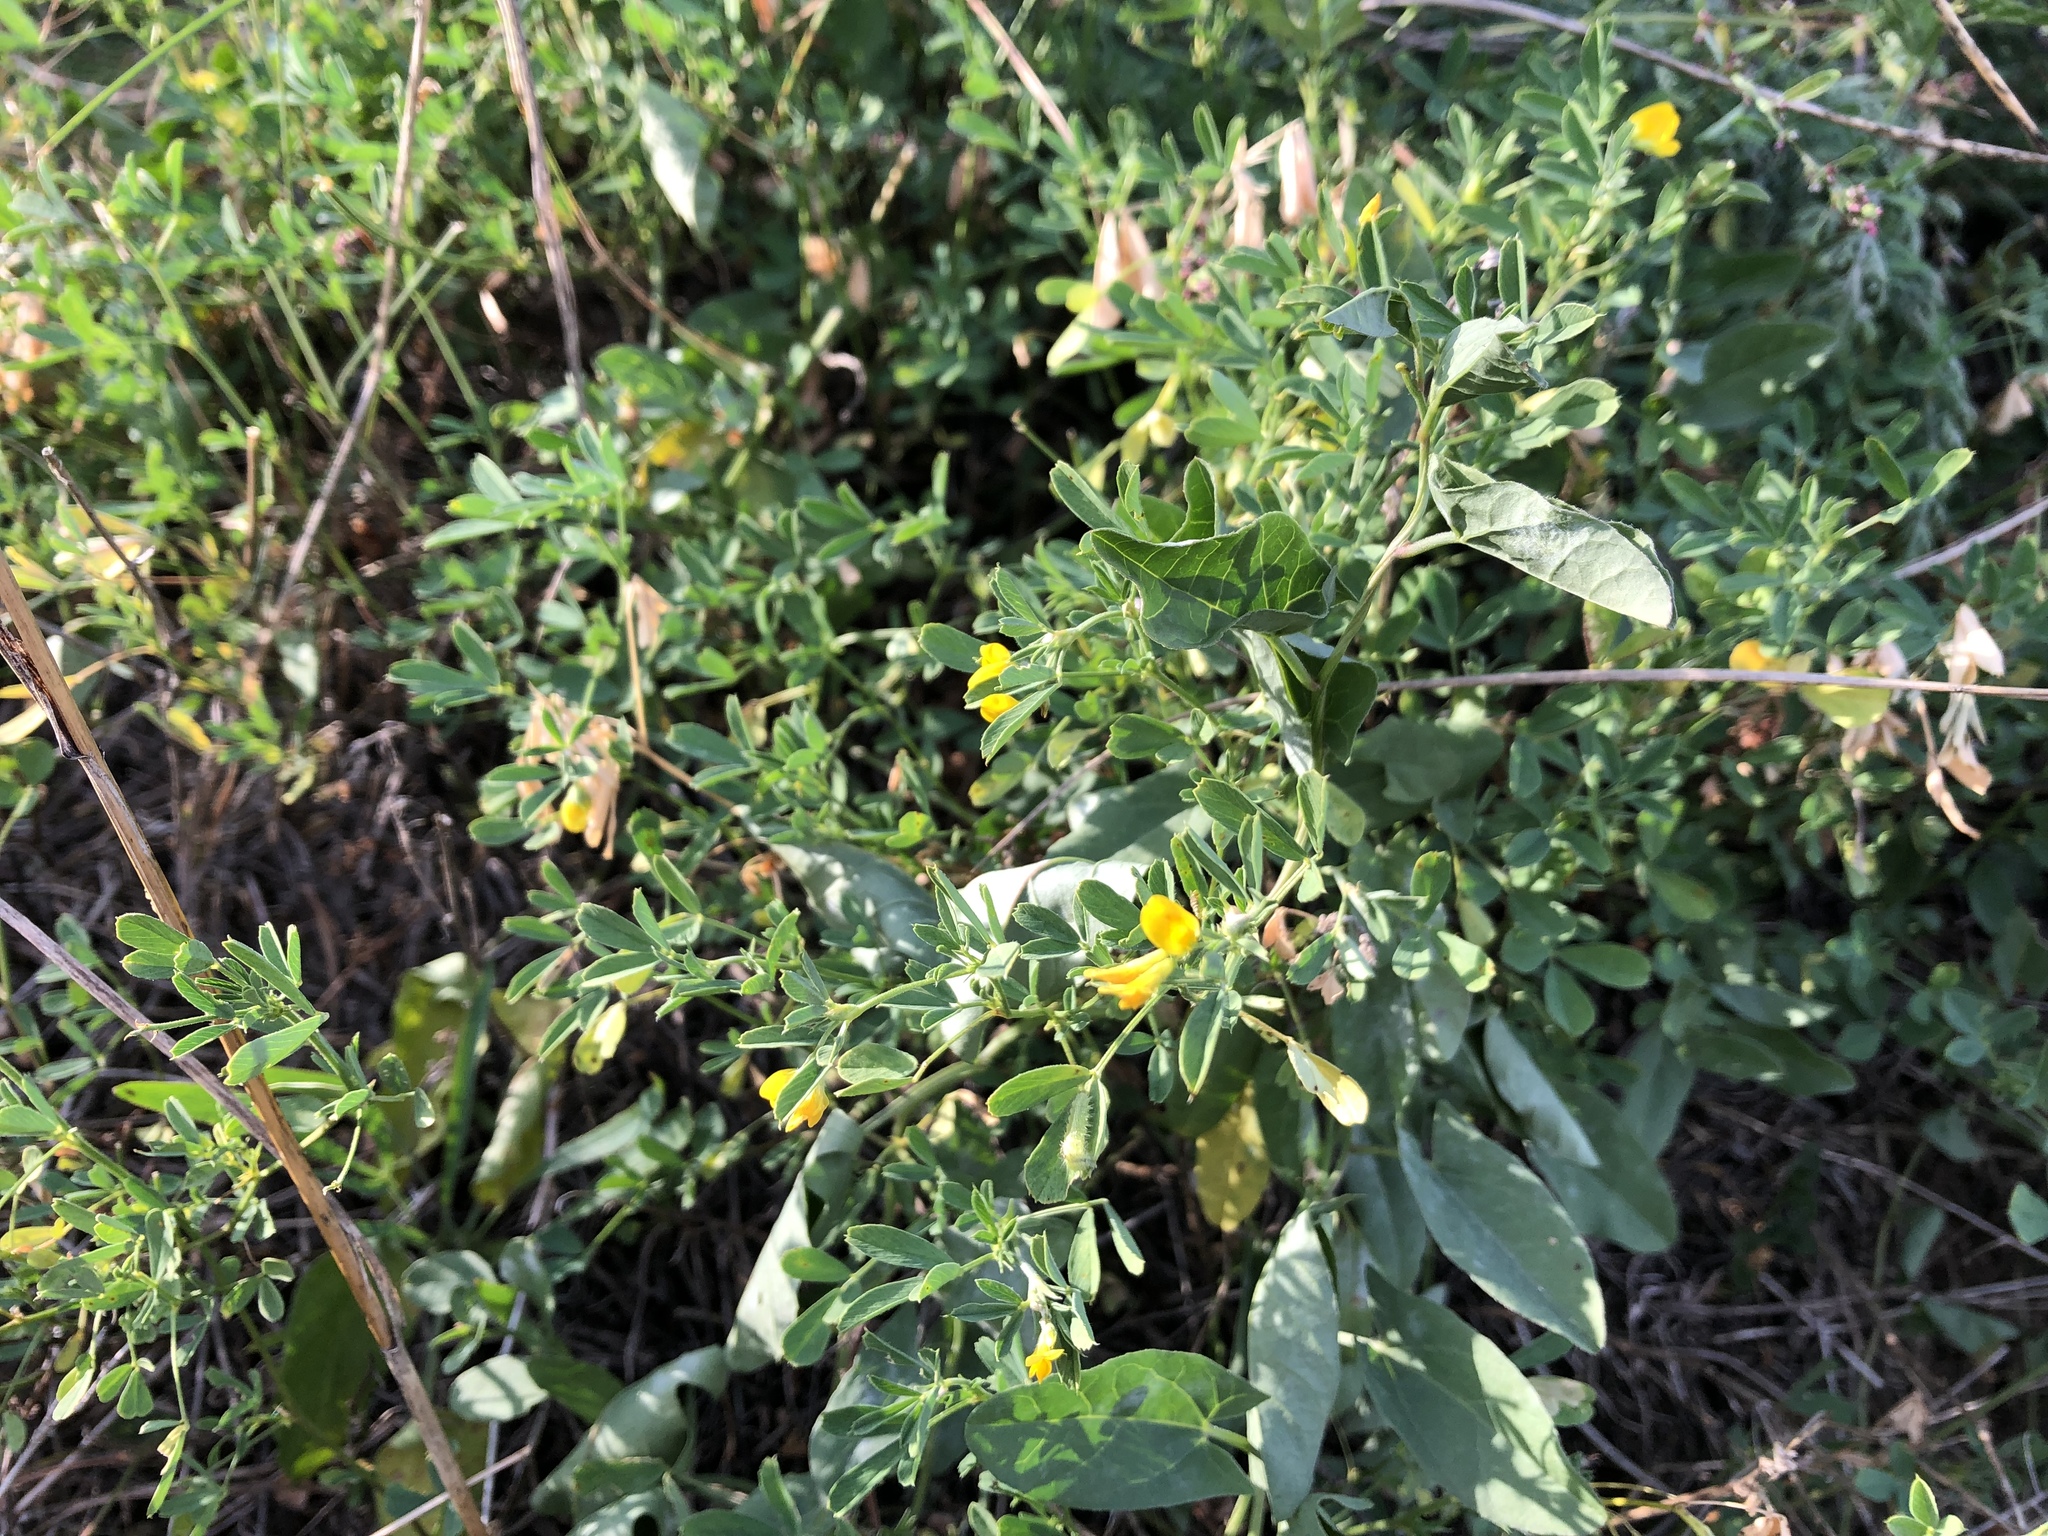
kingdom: Plantae
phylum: Tracheophyta
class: Magnoliopsida
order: Fabales
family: Fabaceae
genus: Medicago
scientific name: Medicago falcata
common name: Sickle medick
